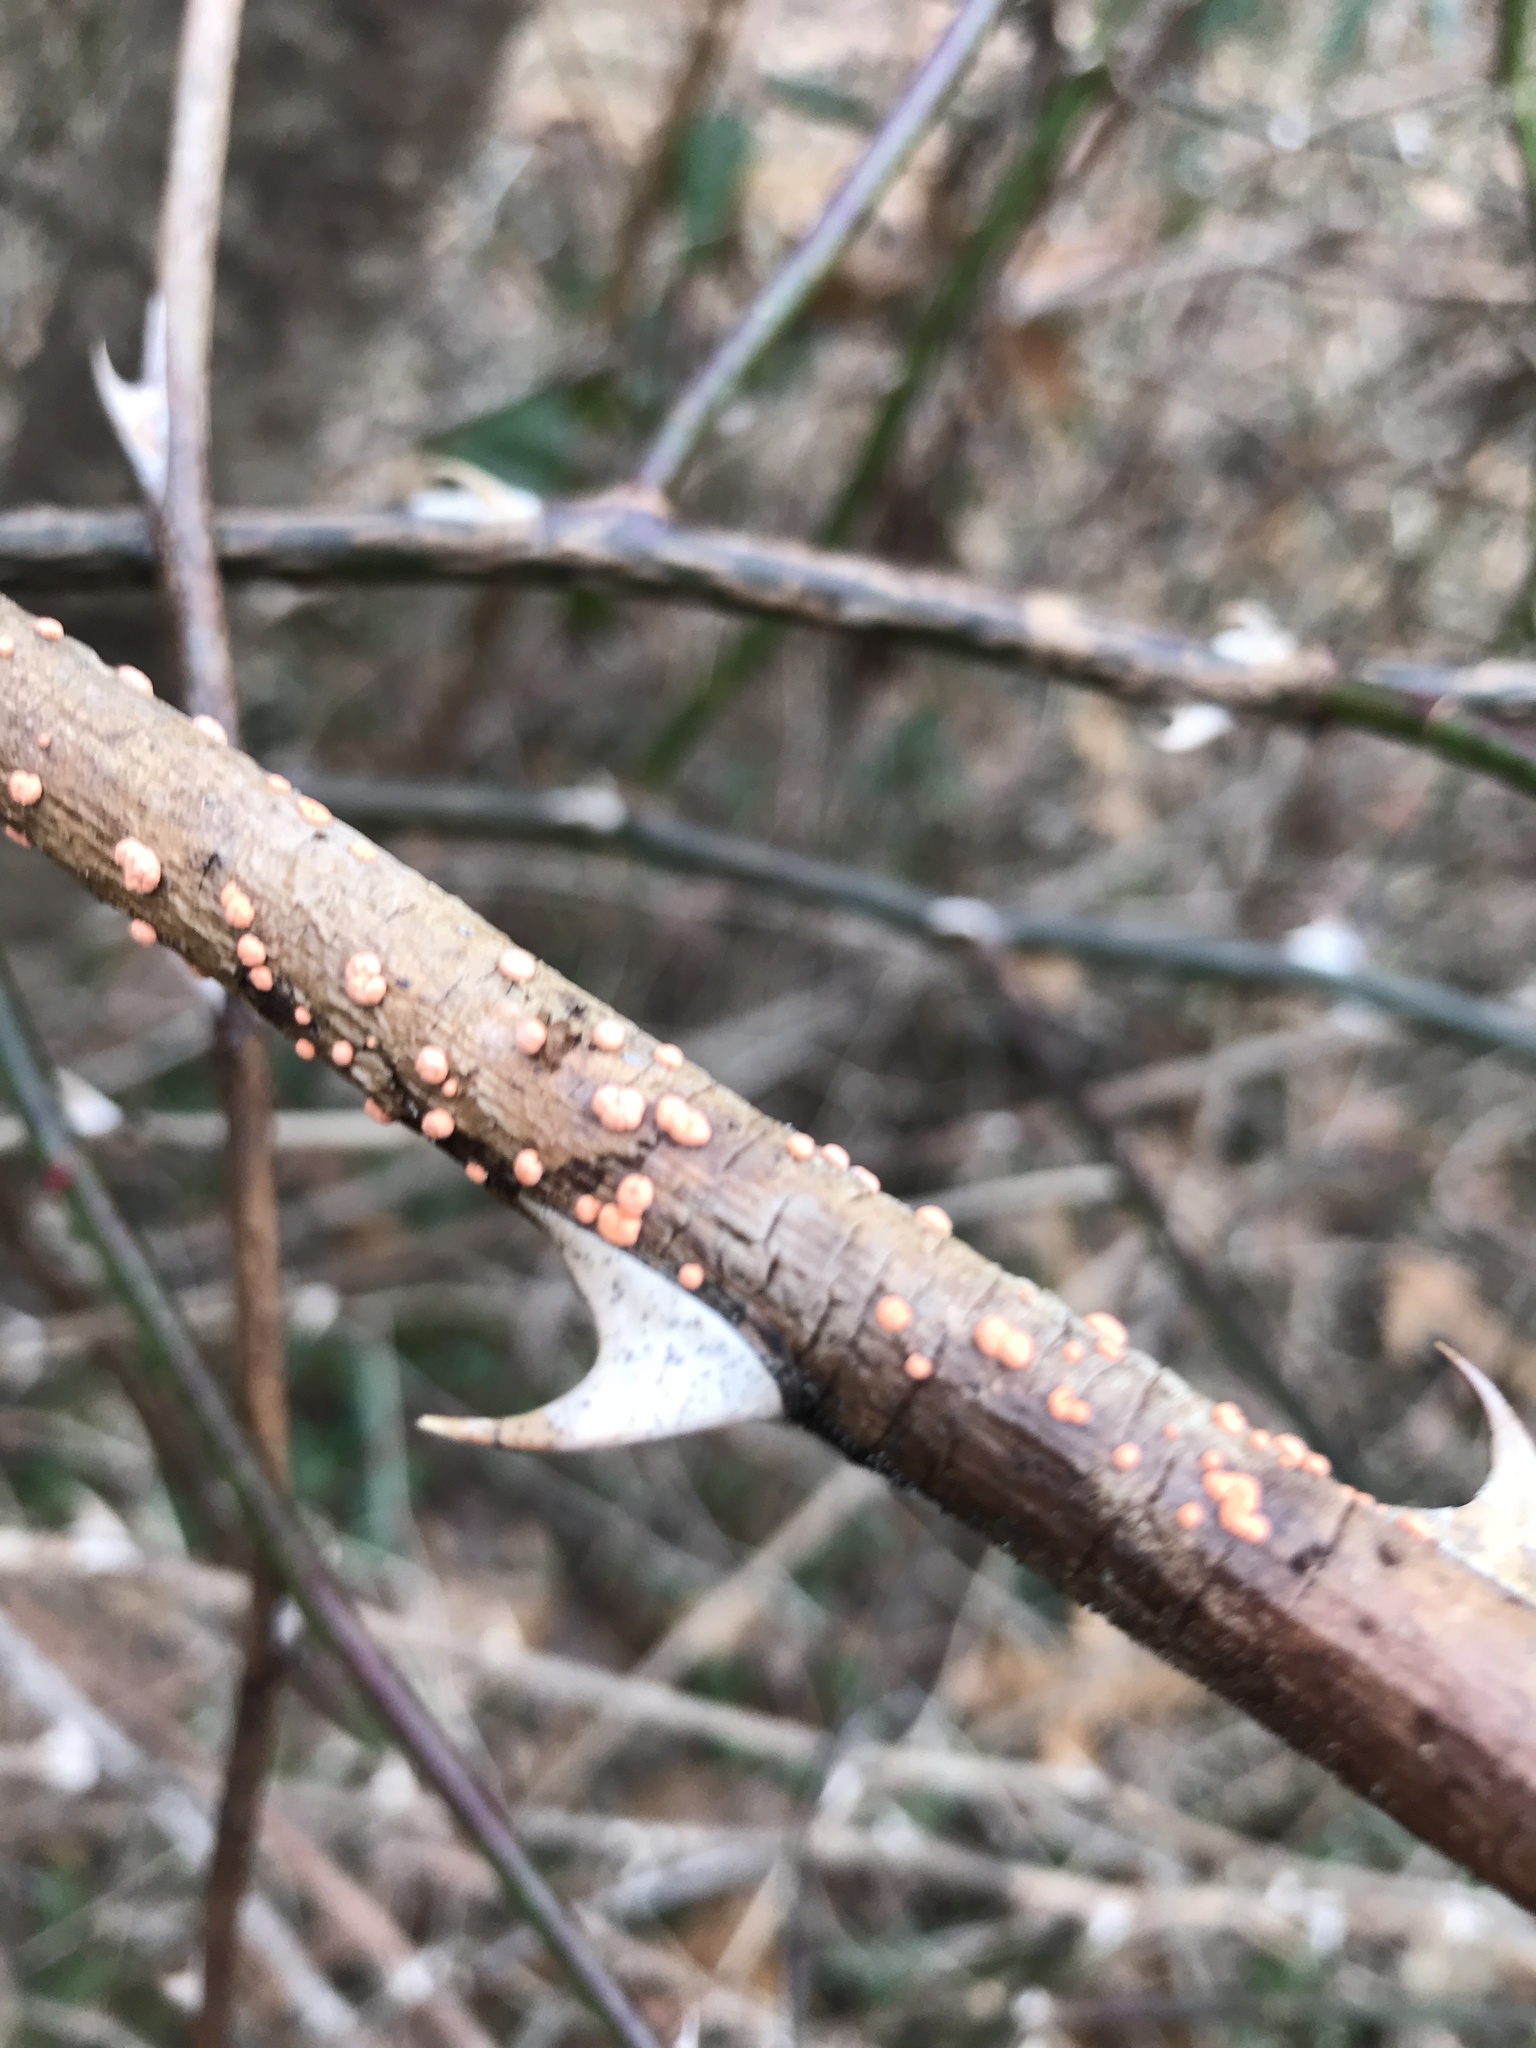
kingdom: Fungi
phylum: Ascomycota
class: Sordariomycetes
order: Hypocreales
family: Nectriaceae
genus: Nectria
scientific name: Nectria cinnabarina
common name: Coral spot
